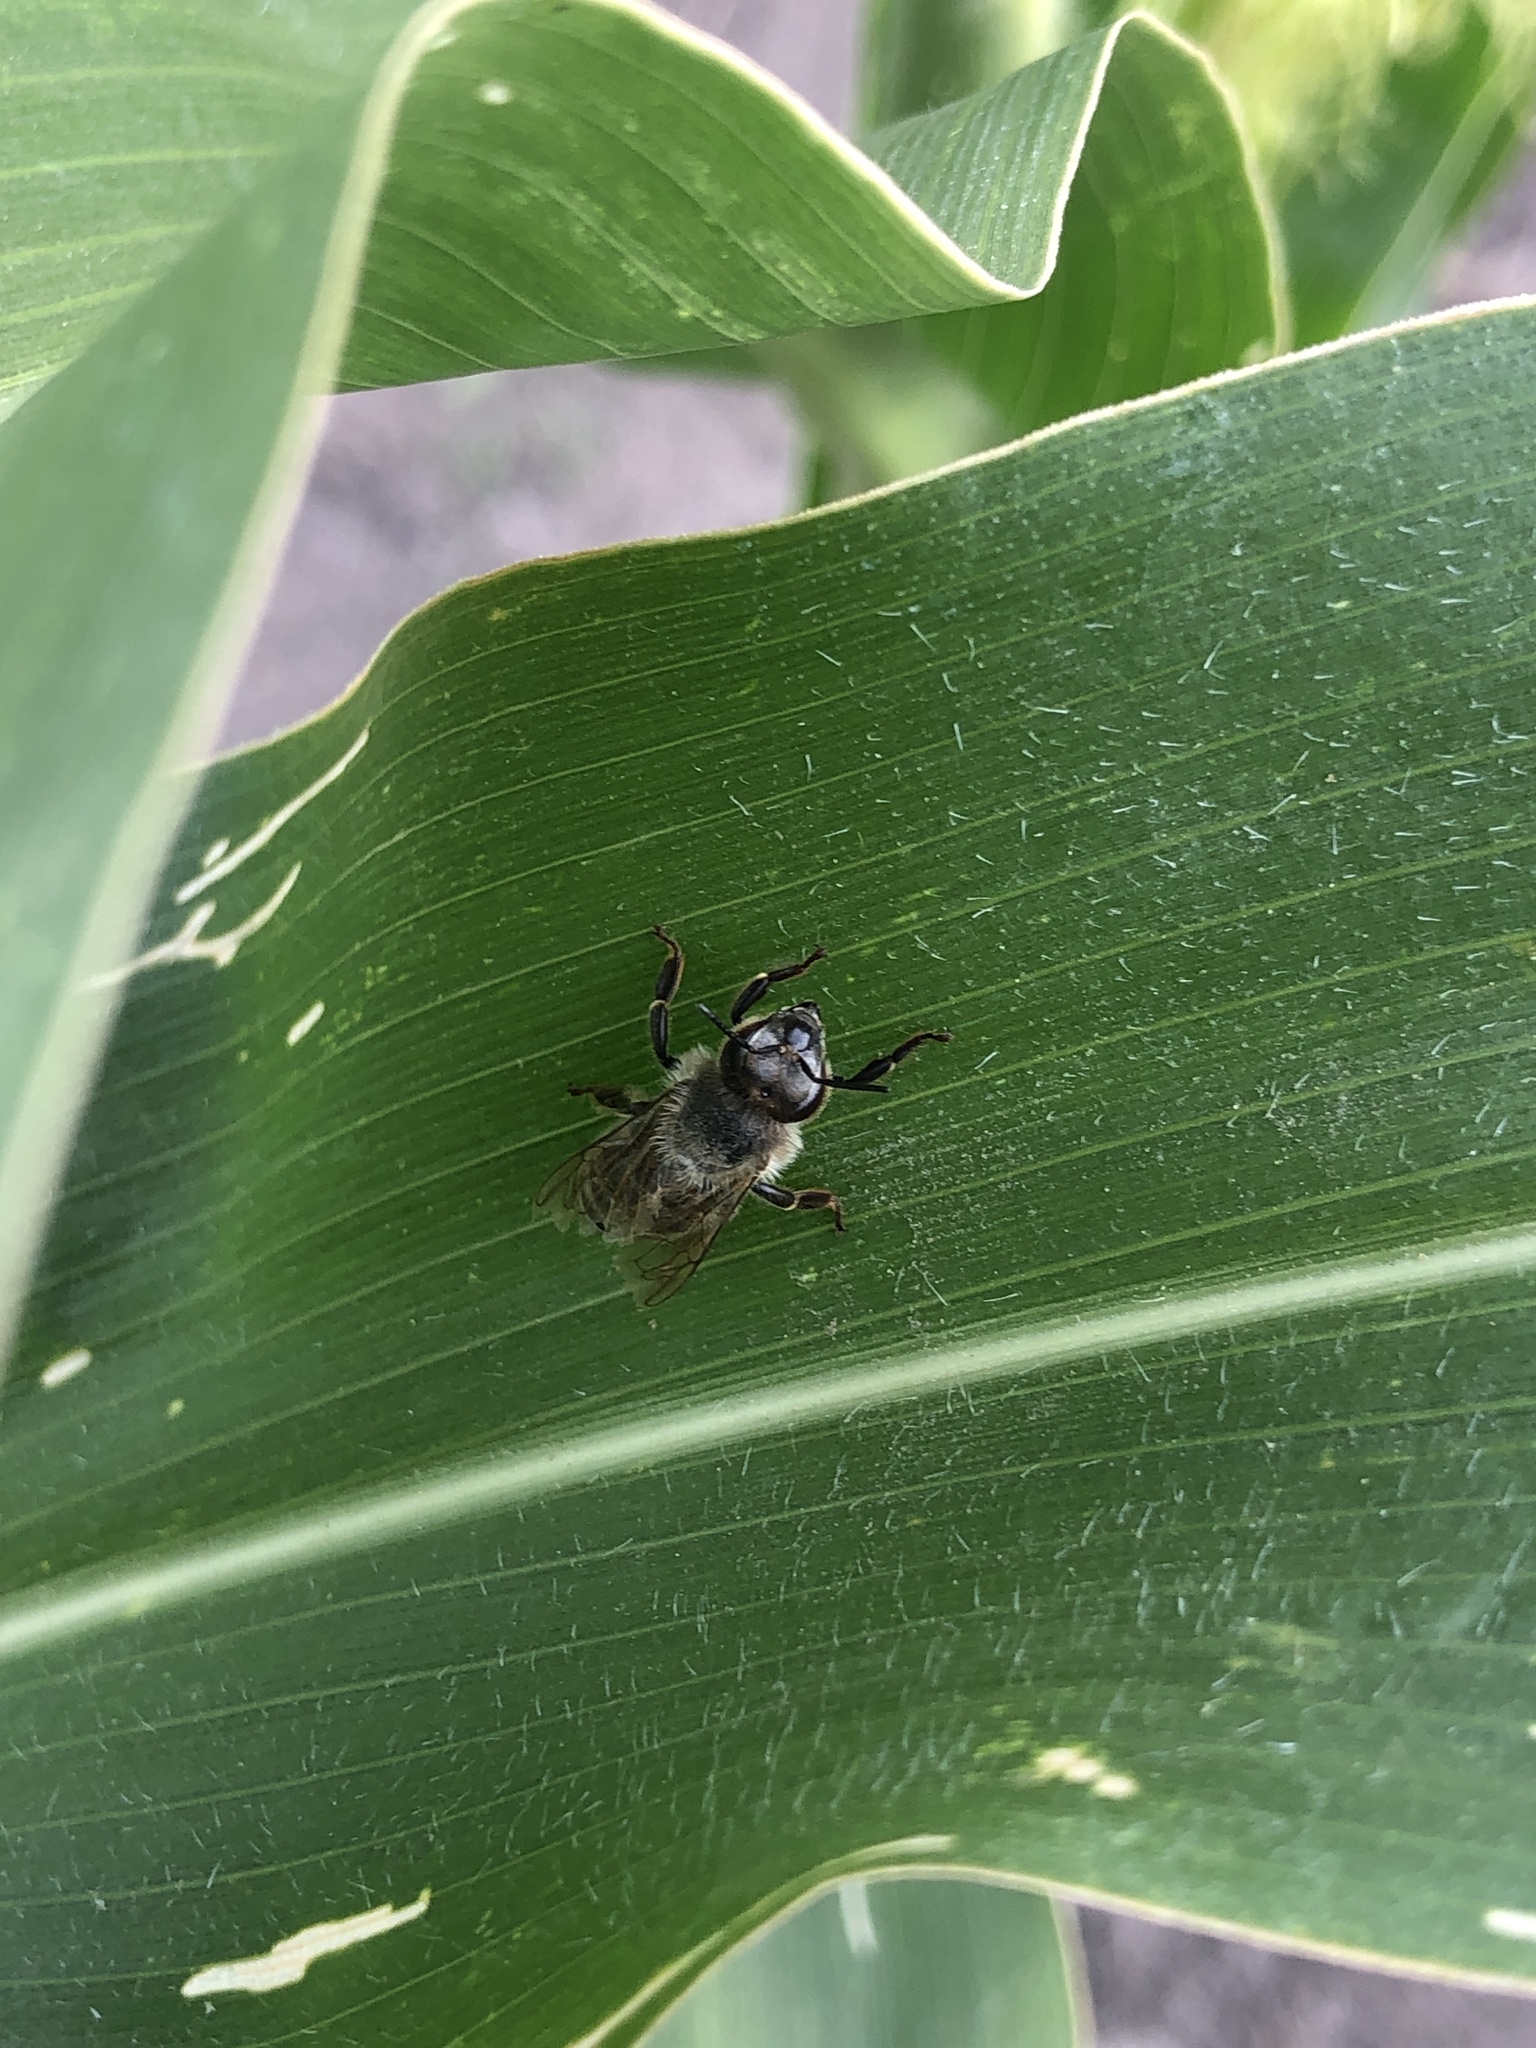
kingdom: Animalia
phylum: Arthropoda
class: Insecta
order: Hymenoptera
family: Apidae
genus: Apis
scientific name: Apis mellifera
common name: Honey bee
